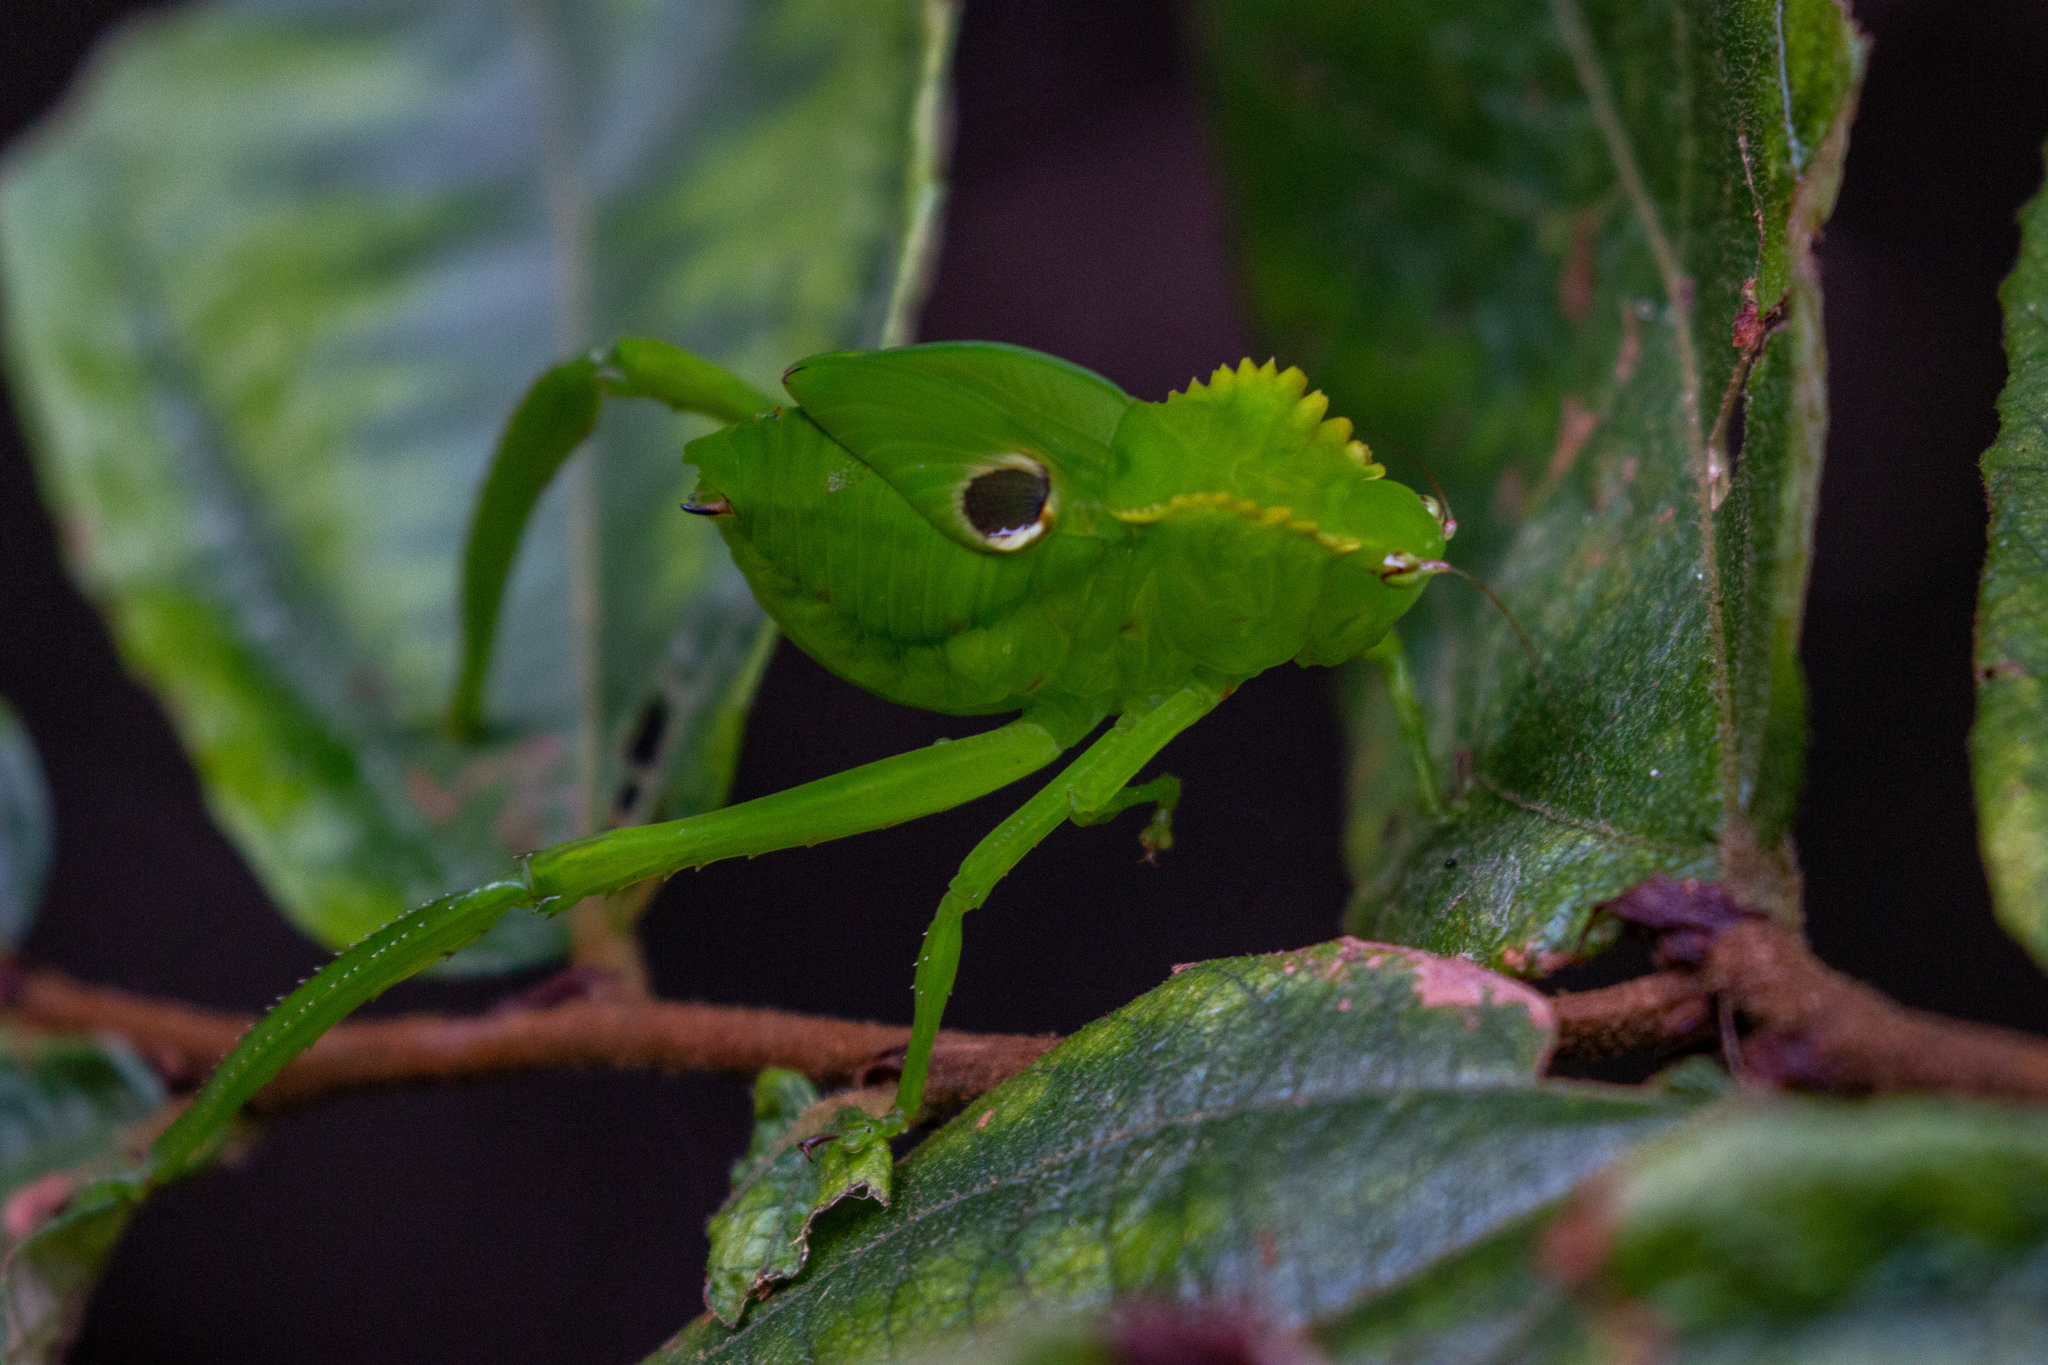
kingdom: Animalia
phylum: Arthropoda
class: Insecta
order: Orthoptera
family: Tettigoniidae
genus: Cnemidophyllum
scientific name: Cnemidophyllum citrifolium
